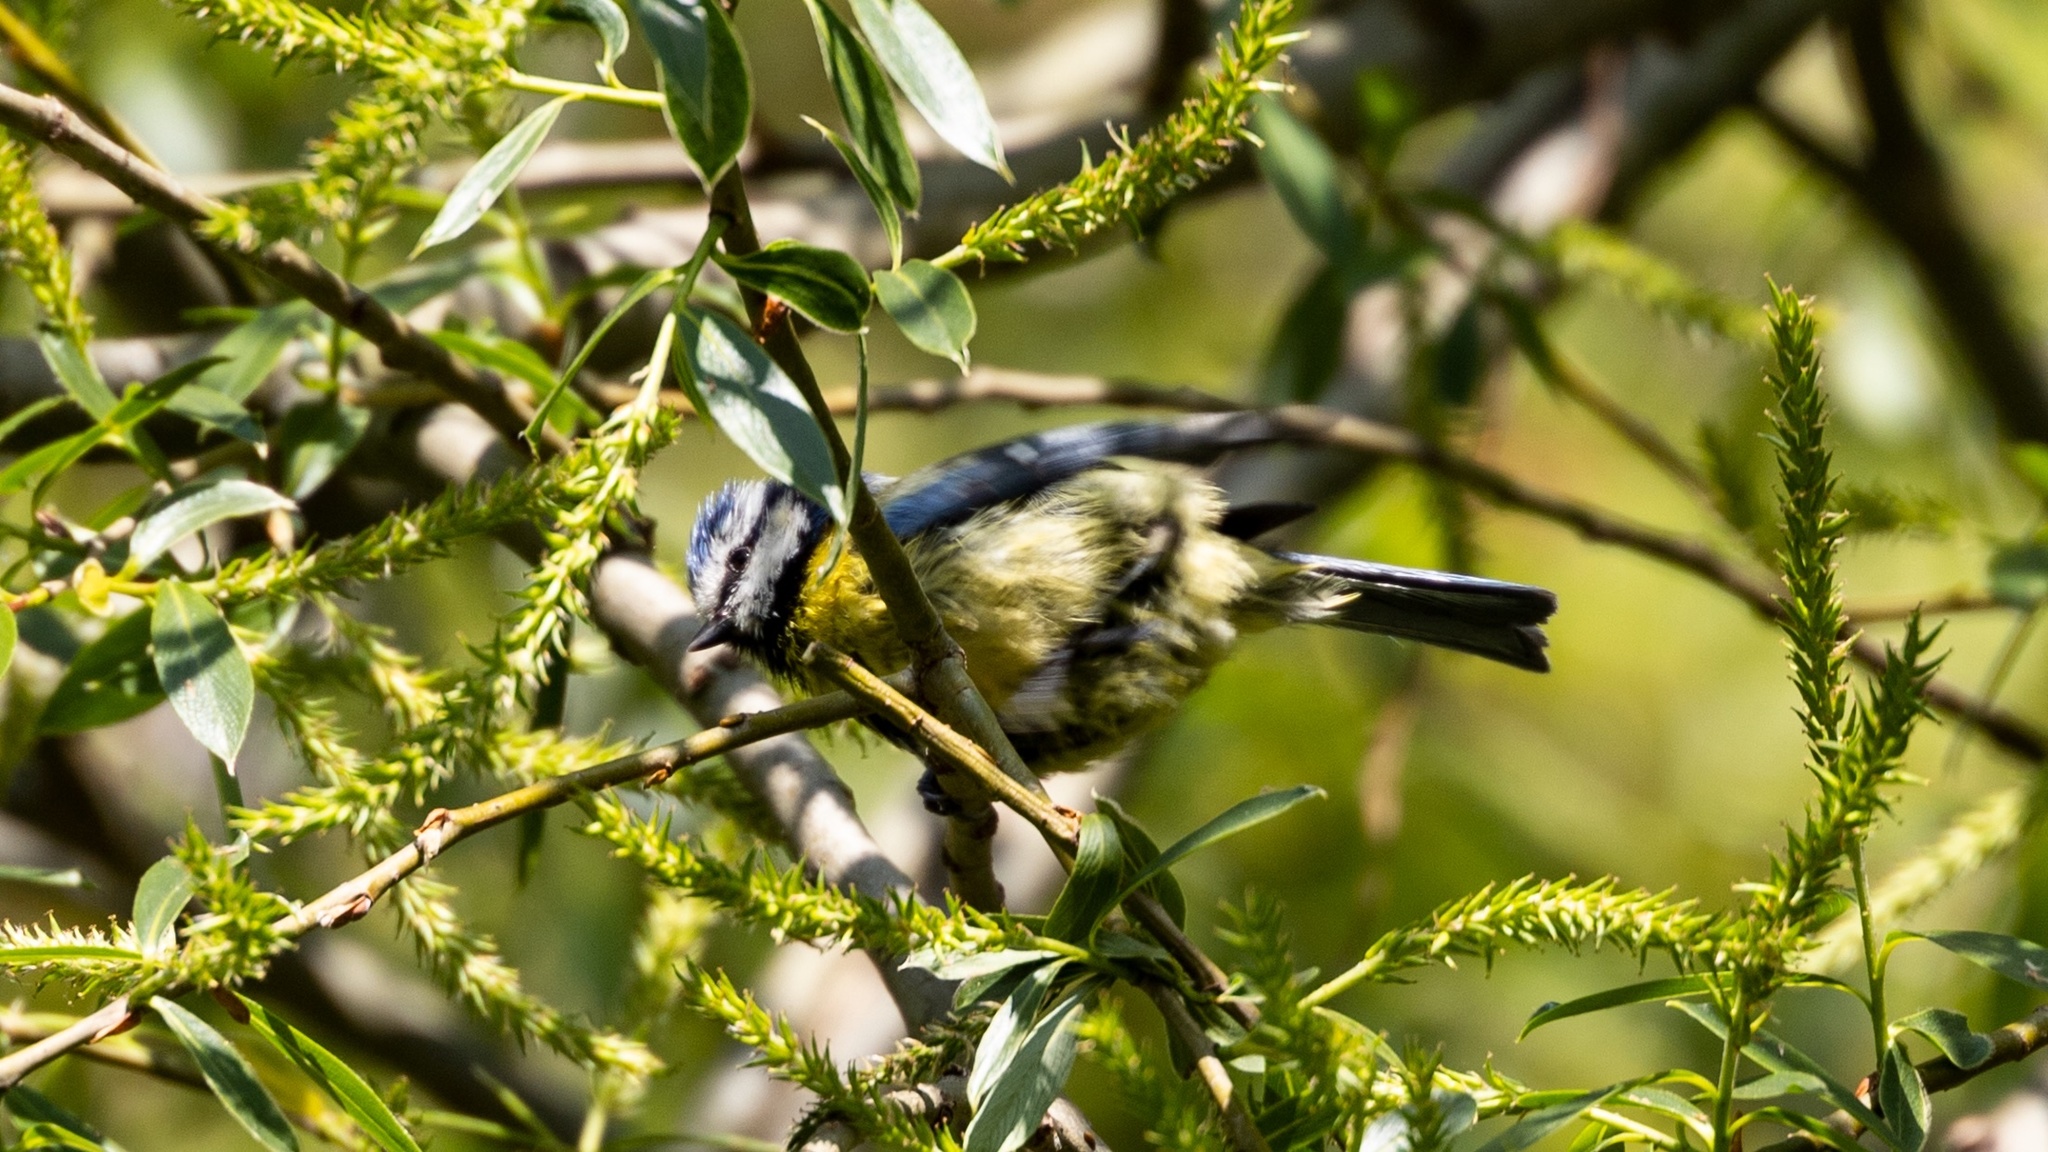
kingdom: Animalia
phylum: Chordata
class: Aves
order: Passeriformes
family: Paridae
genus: Cyanistes
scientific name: Cyanistes caeruleus
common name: Eurasian blue tit
